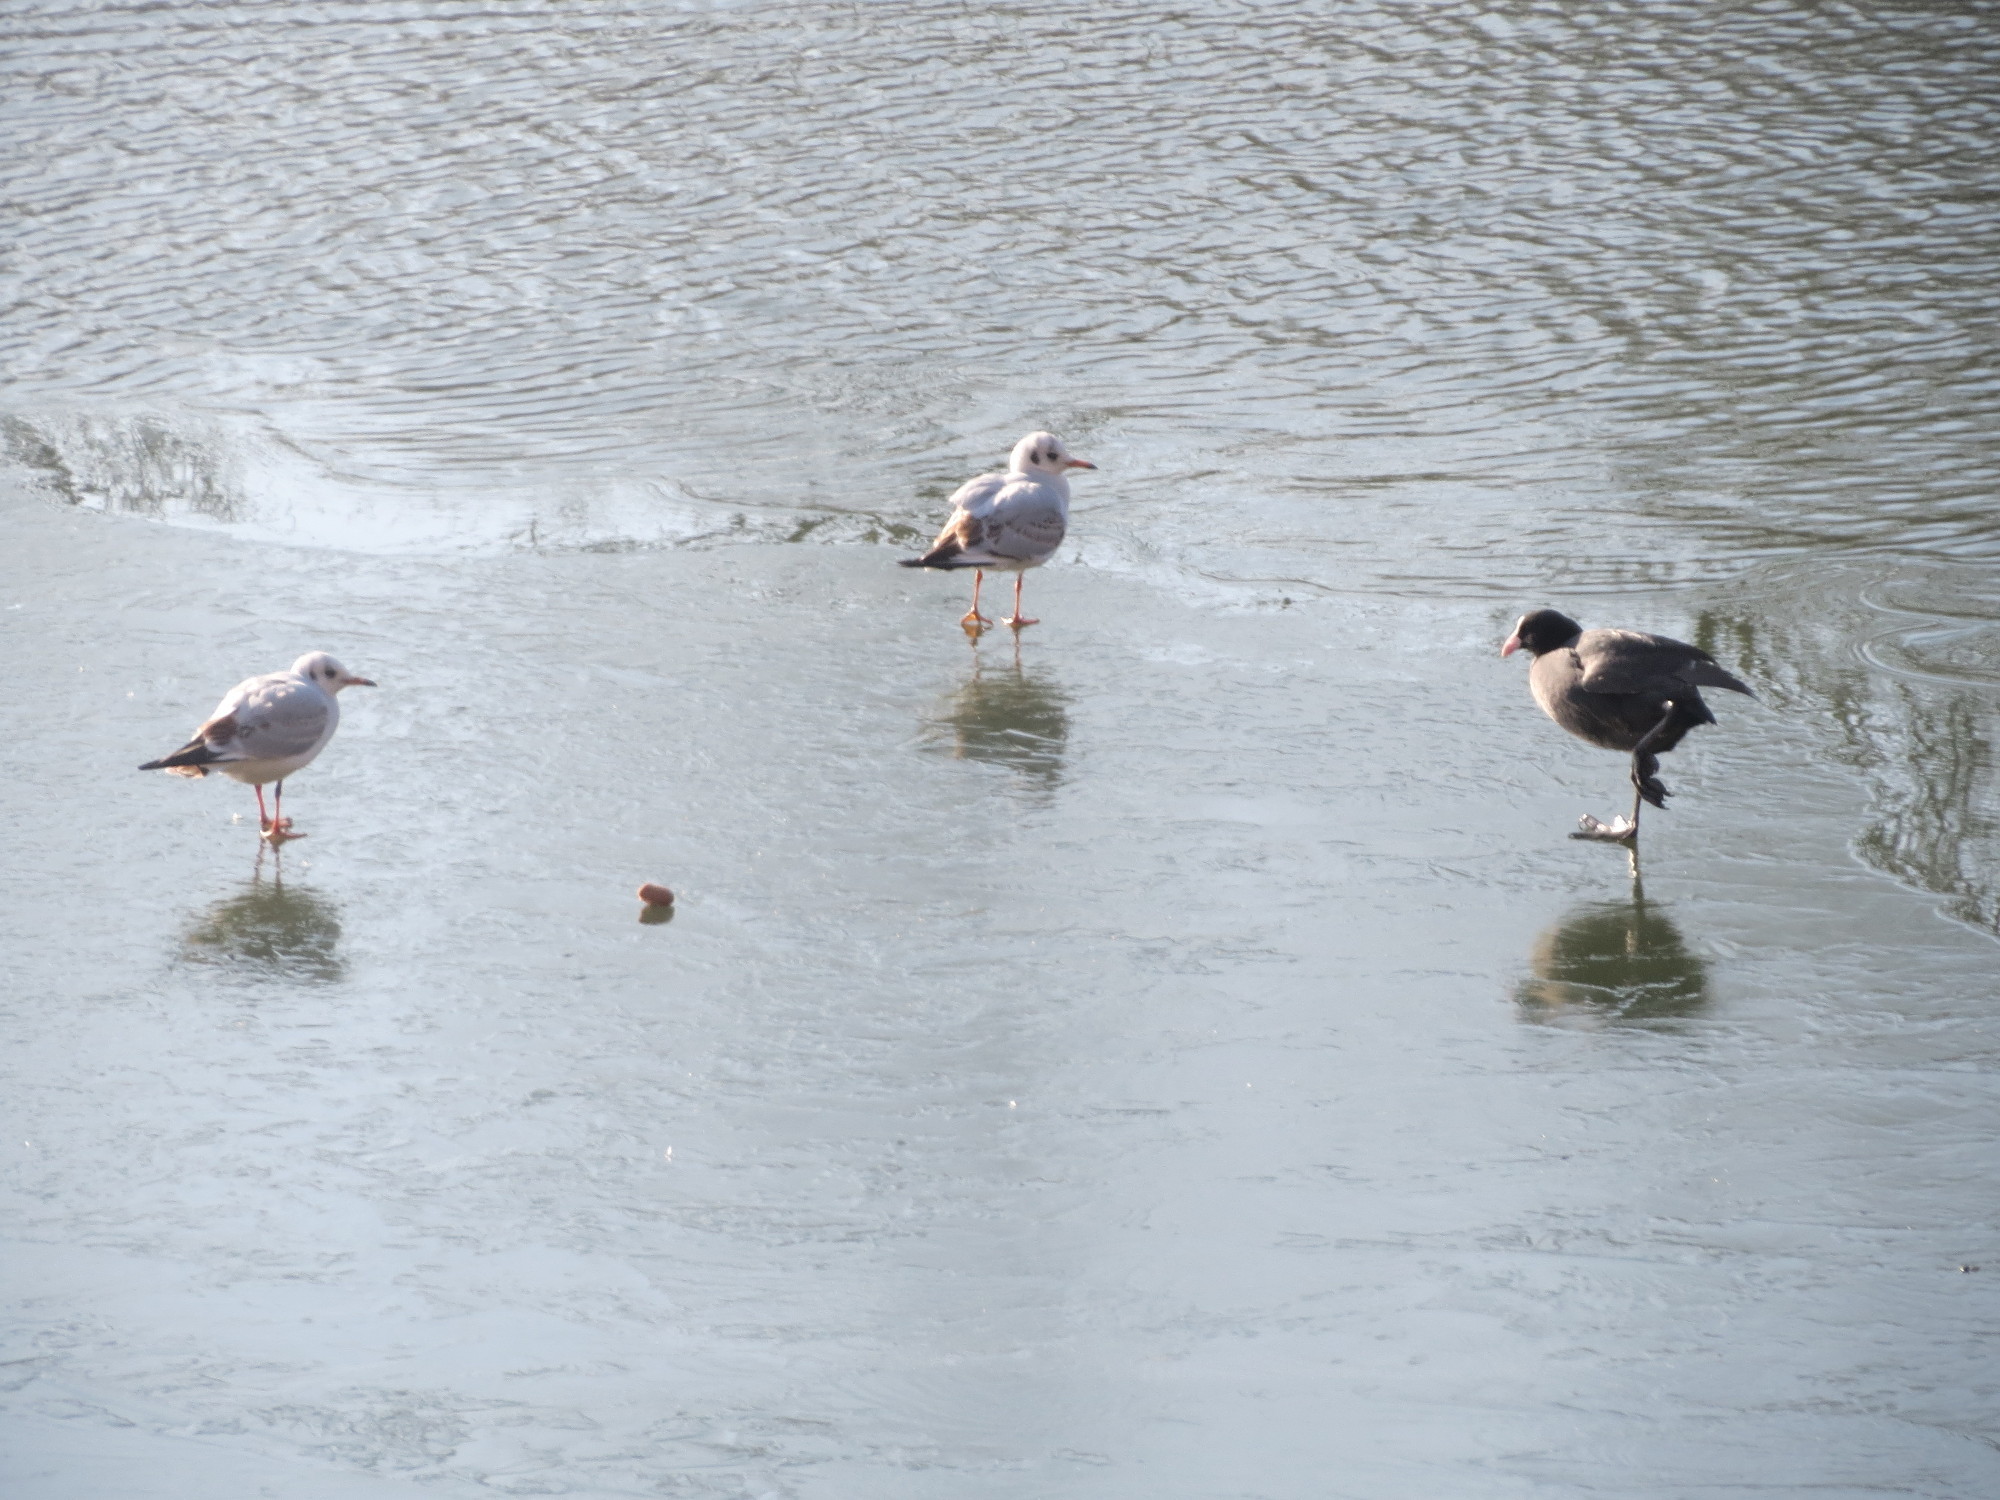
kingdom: Animalia
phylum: Chordata
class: Aves
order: Charadriiformes
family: Laridae
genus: Chroicocephalus
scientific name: Chroicocephalus ridibundus
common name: Black-headed gull
